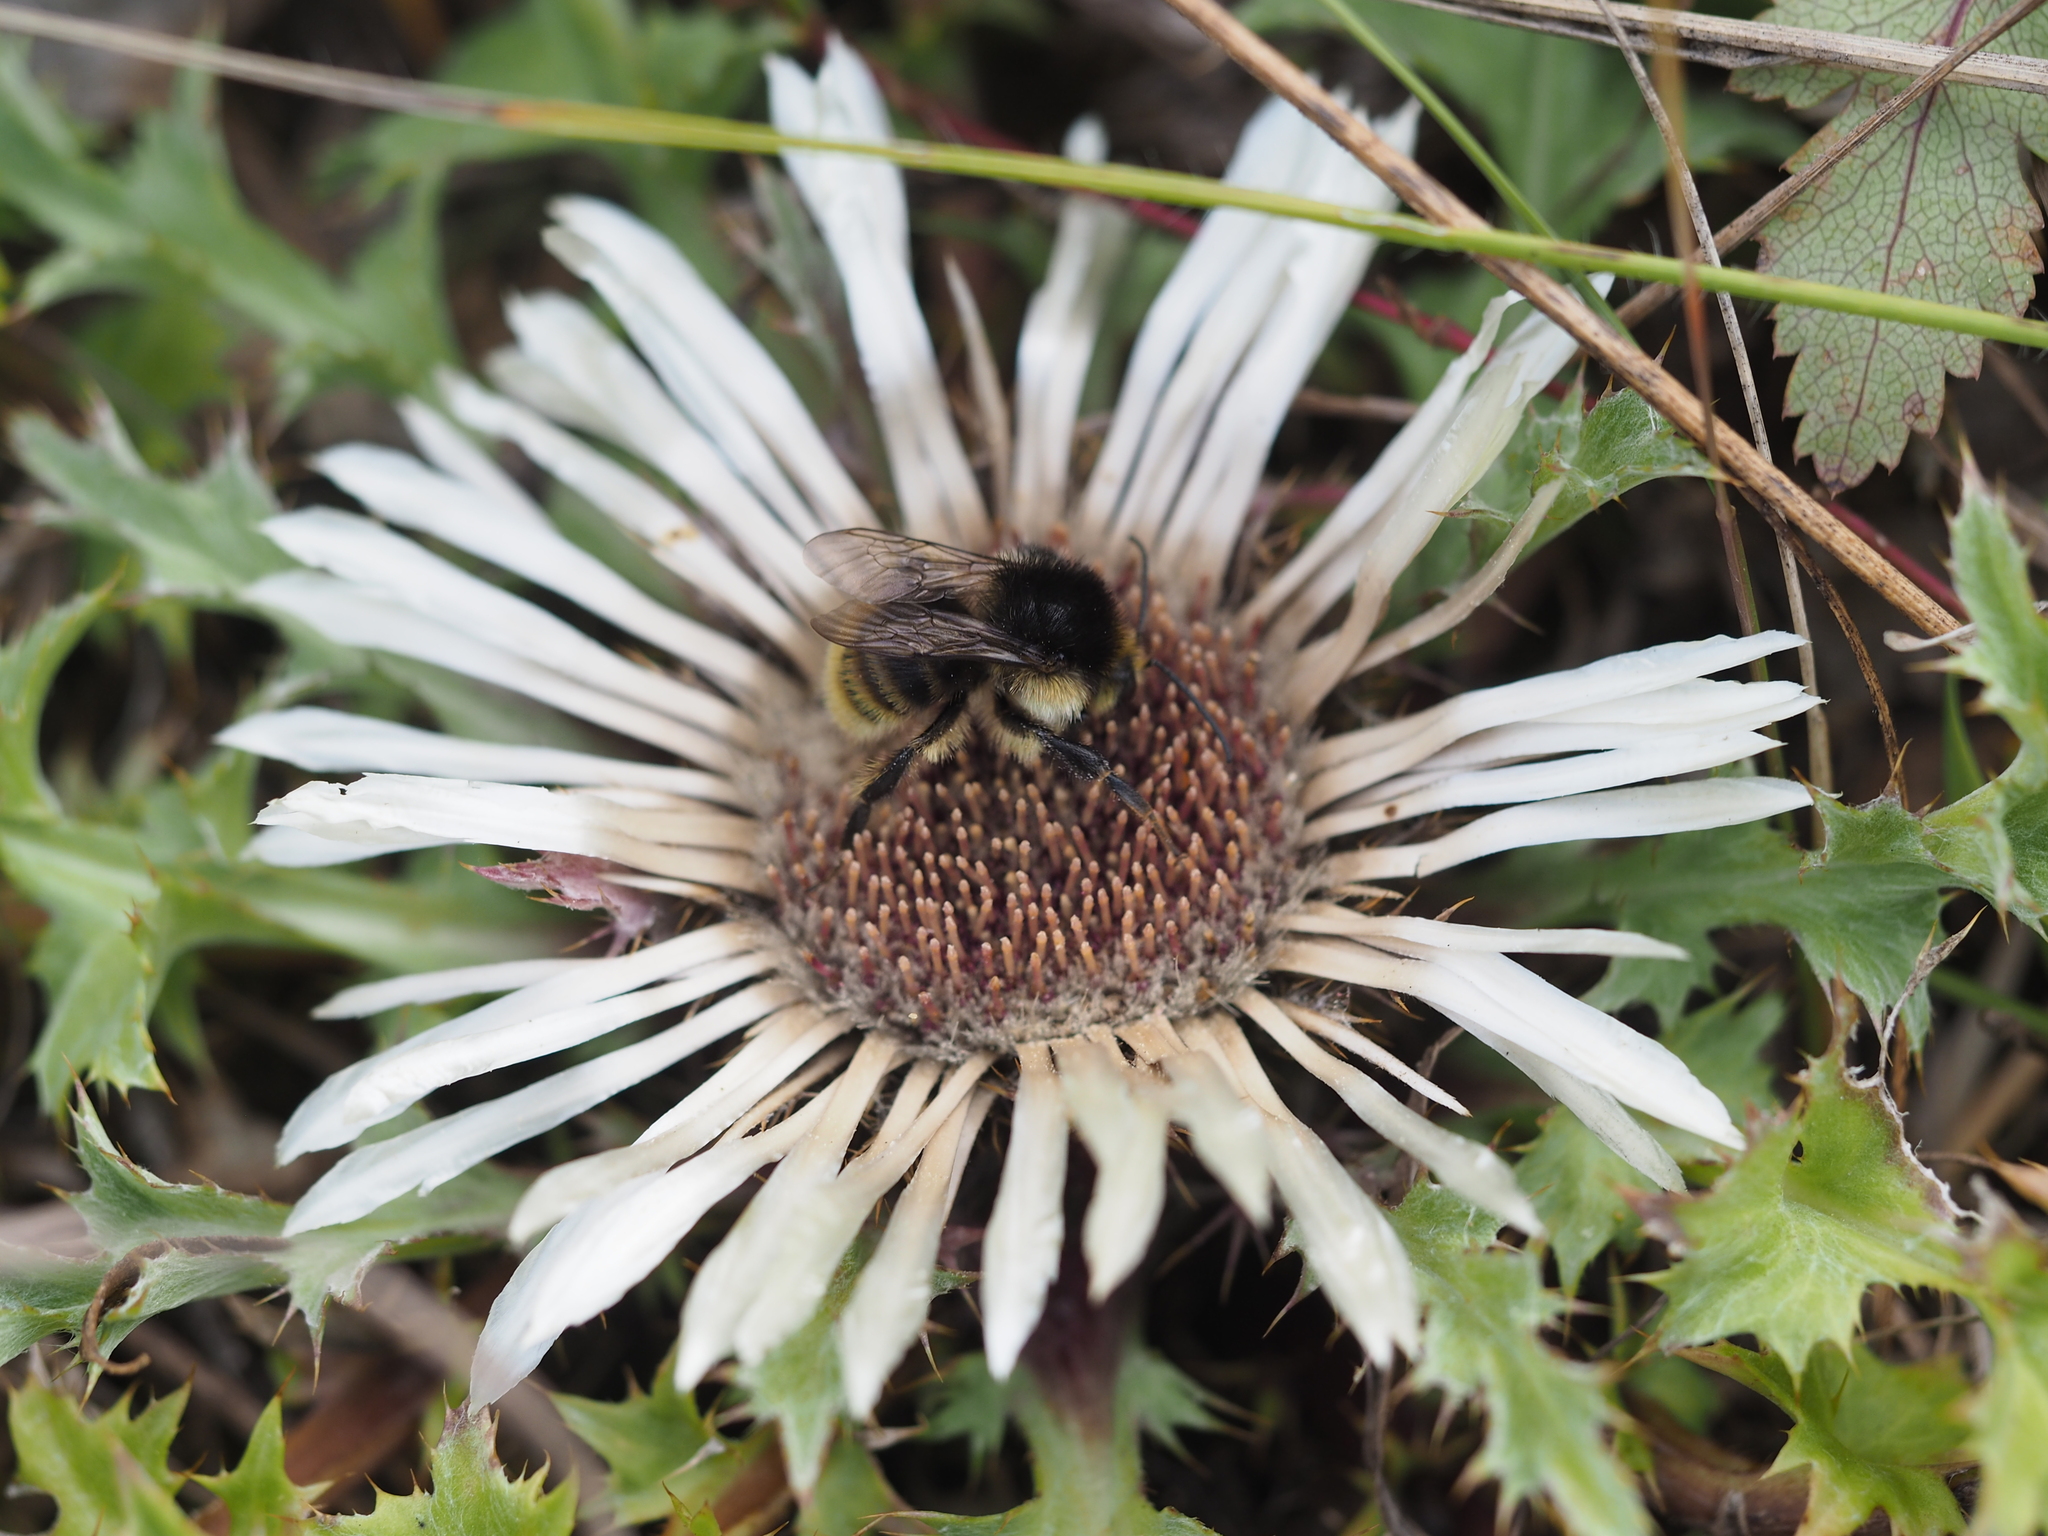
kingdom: Animalia
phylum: Arthropoda
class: Insecta
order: Hymenoptera
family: Apidae
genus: Bombus
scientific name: Bombus humilis
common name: Brown-banded carder-bee
